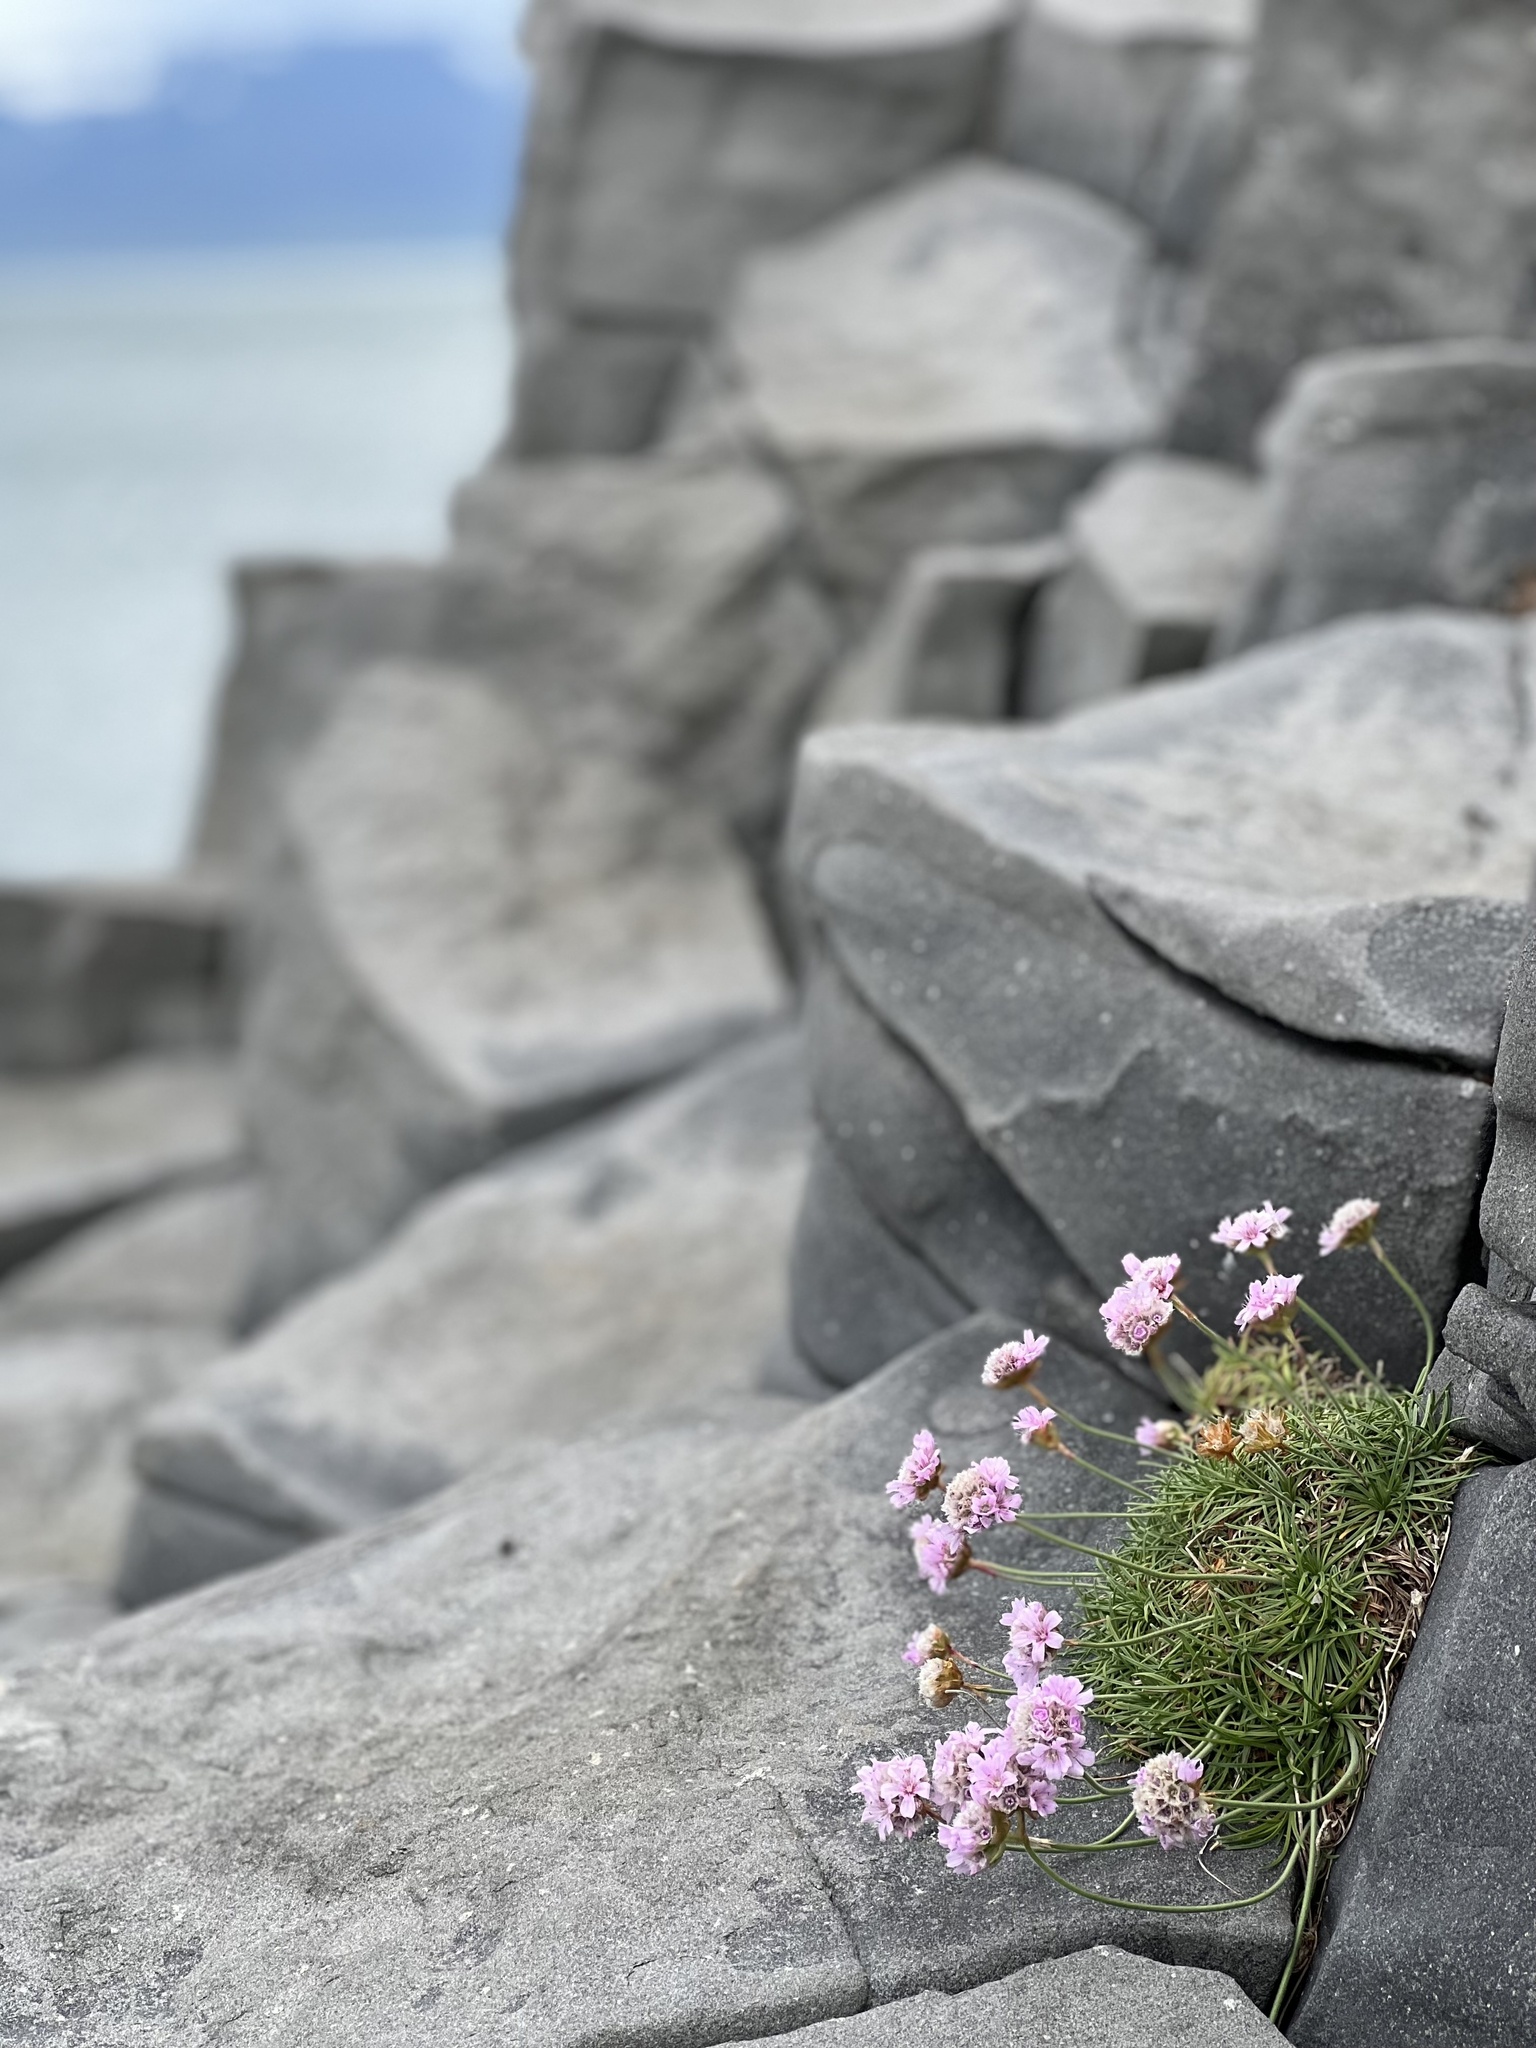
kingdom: Plantae
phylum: Tracheophyta
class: Magnoliopsida
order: Caryophyllales
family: Plumbaginaceae
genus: Armeria
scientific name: Armeria maritima
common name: Thrift
